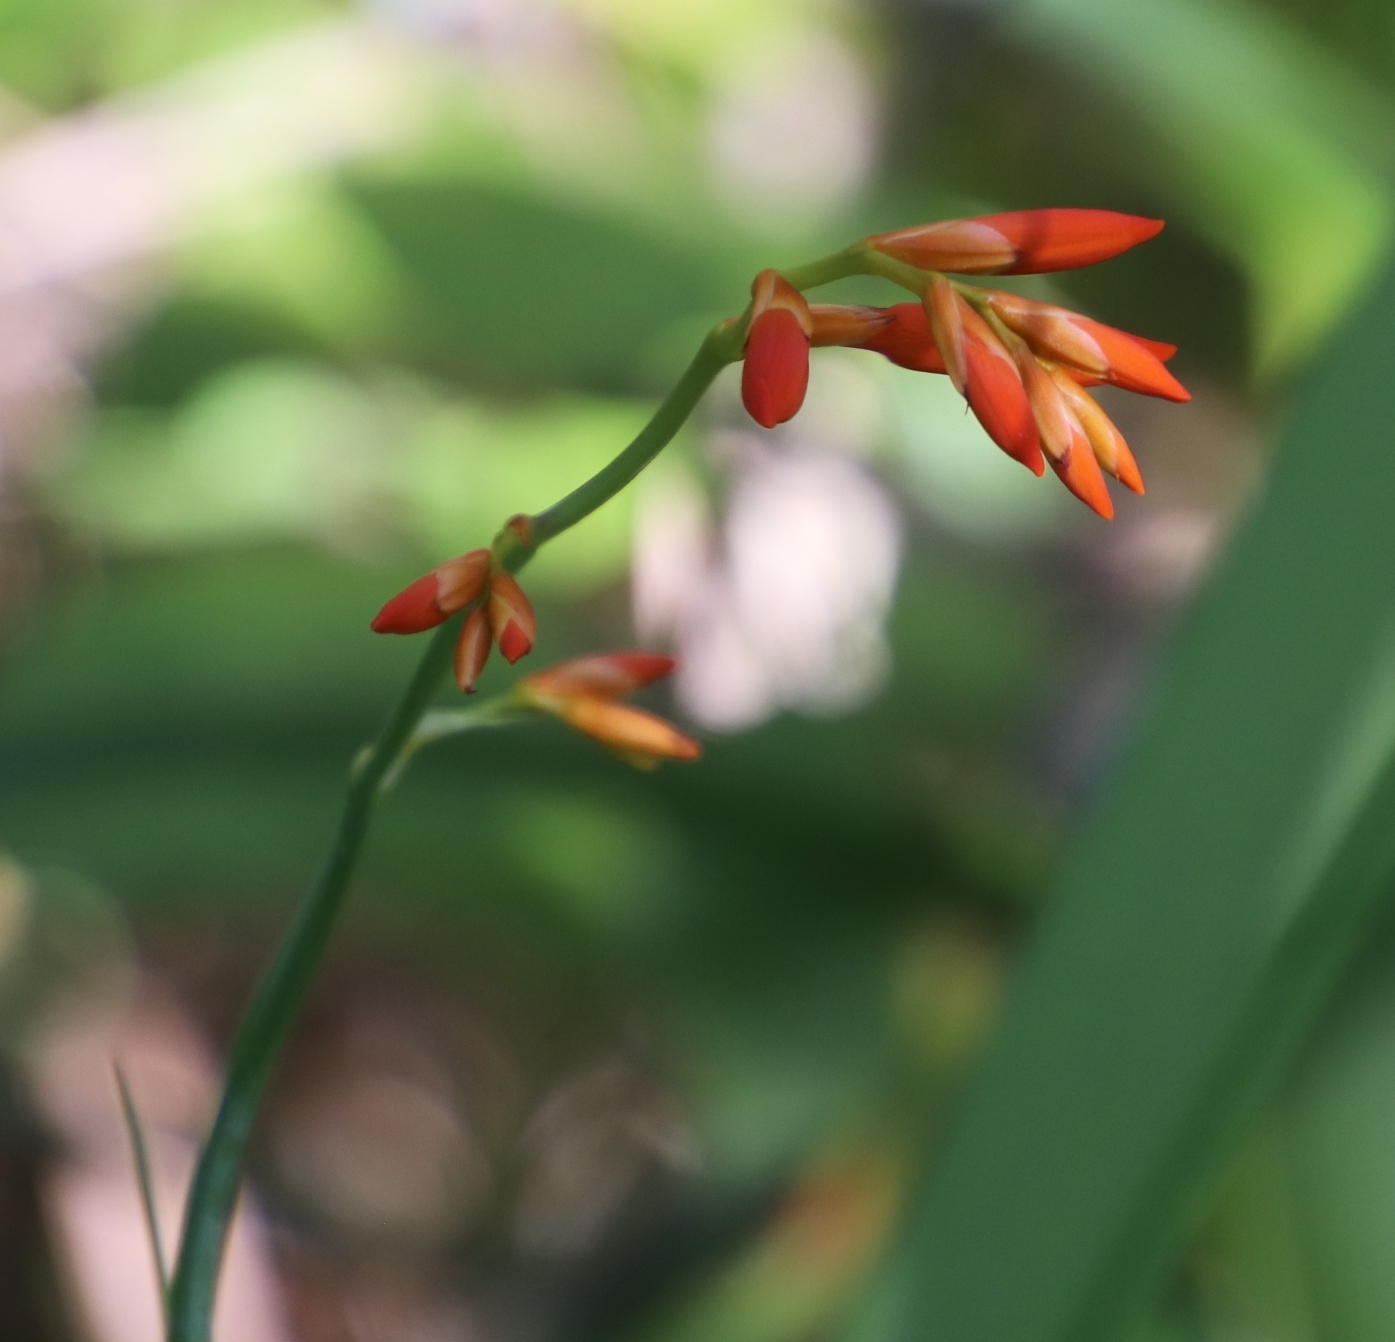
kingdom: Plantae
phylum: Tracheophyta
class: Liliopsida
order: Asparagales
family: Iridaceae
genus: Crocosmia
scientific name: Crocosmia aurea
